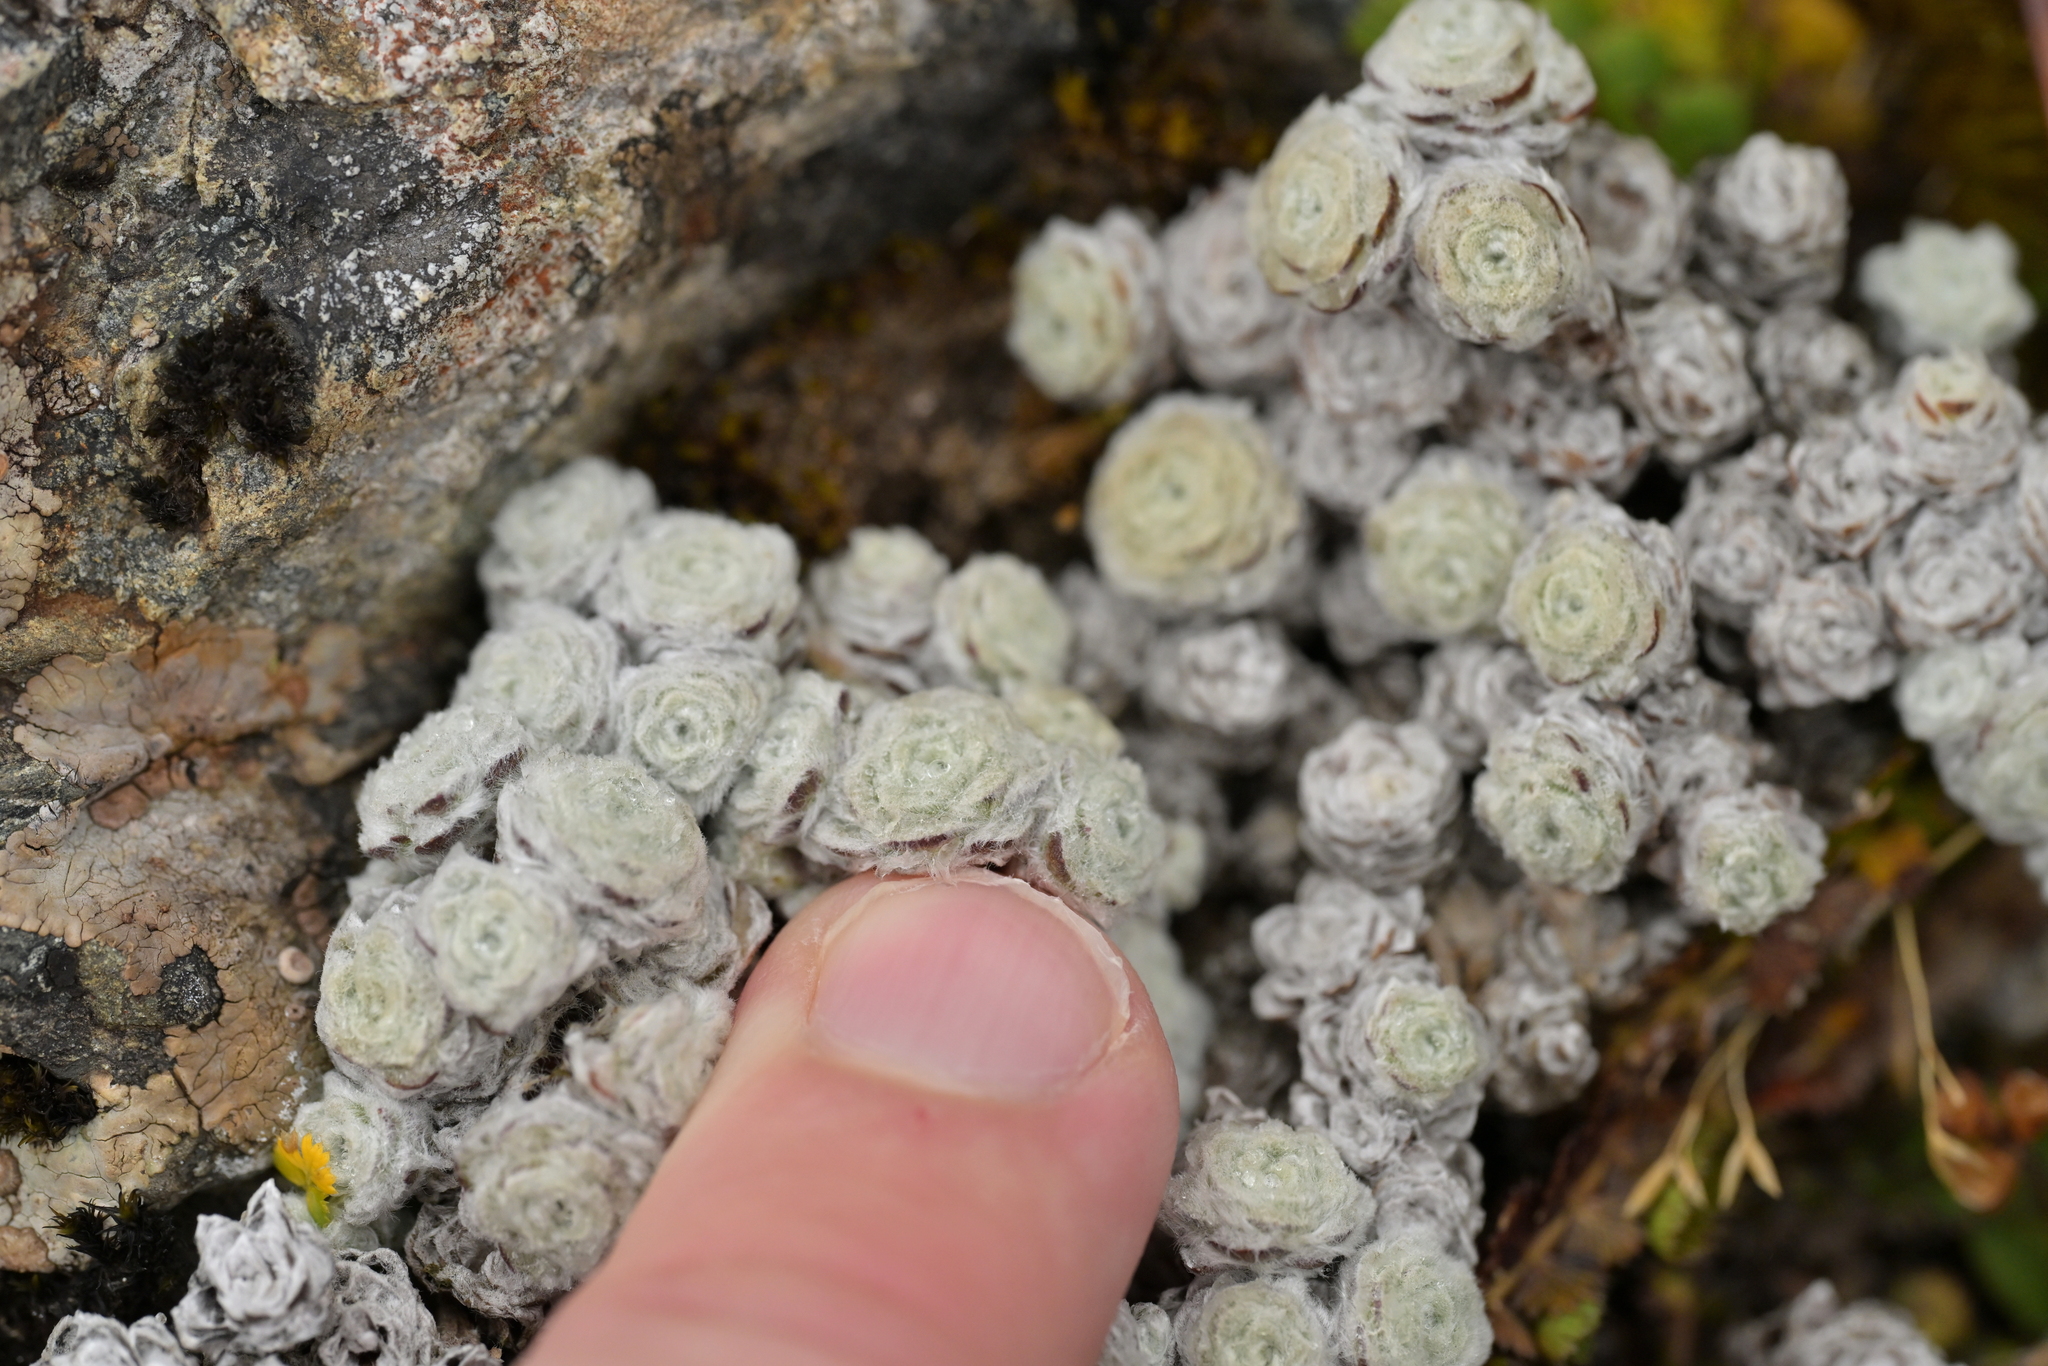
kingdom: Plantae
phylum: Tracheophyta
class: Magnoliopsida
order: Asterales
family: Asteraceae
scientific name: Asteraceae
